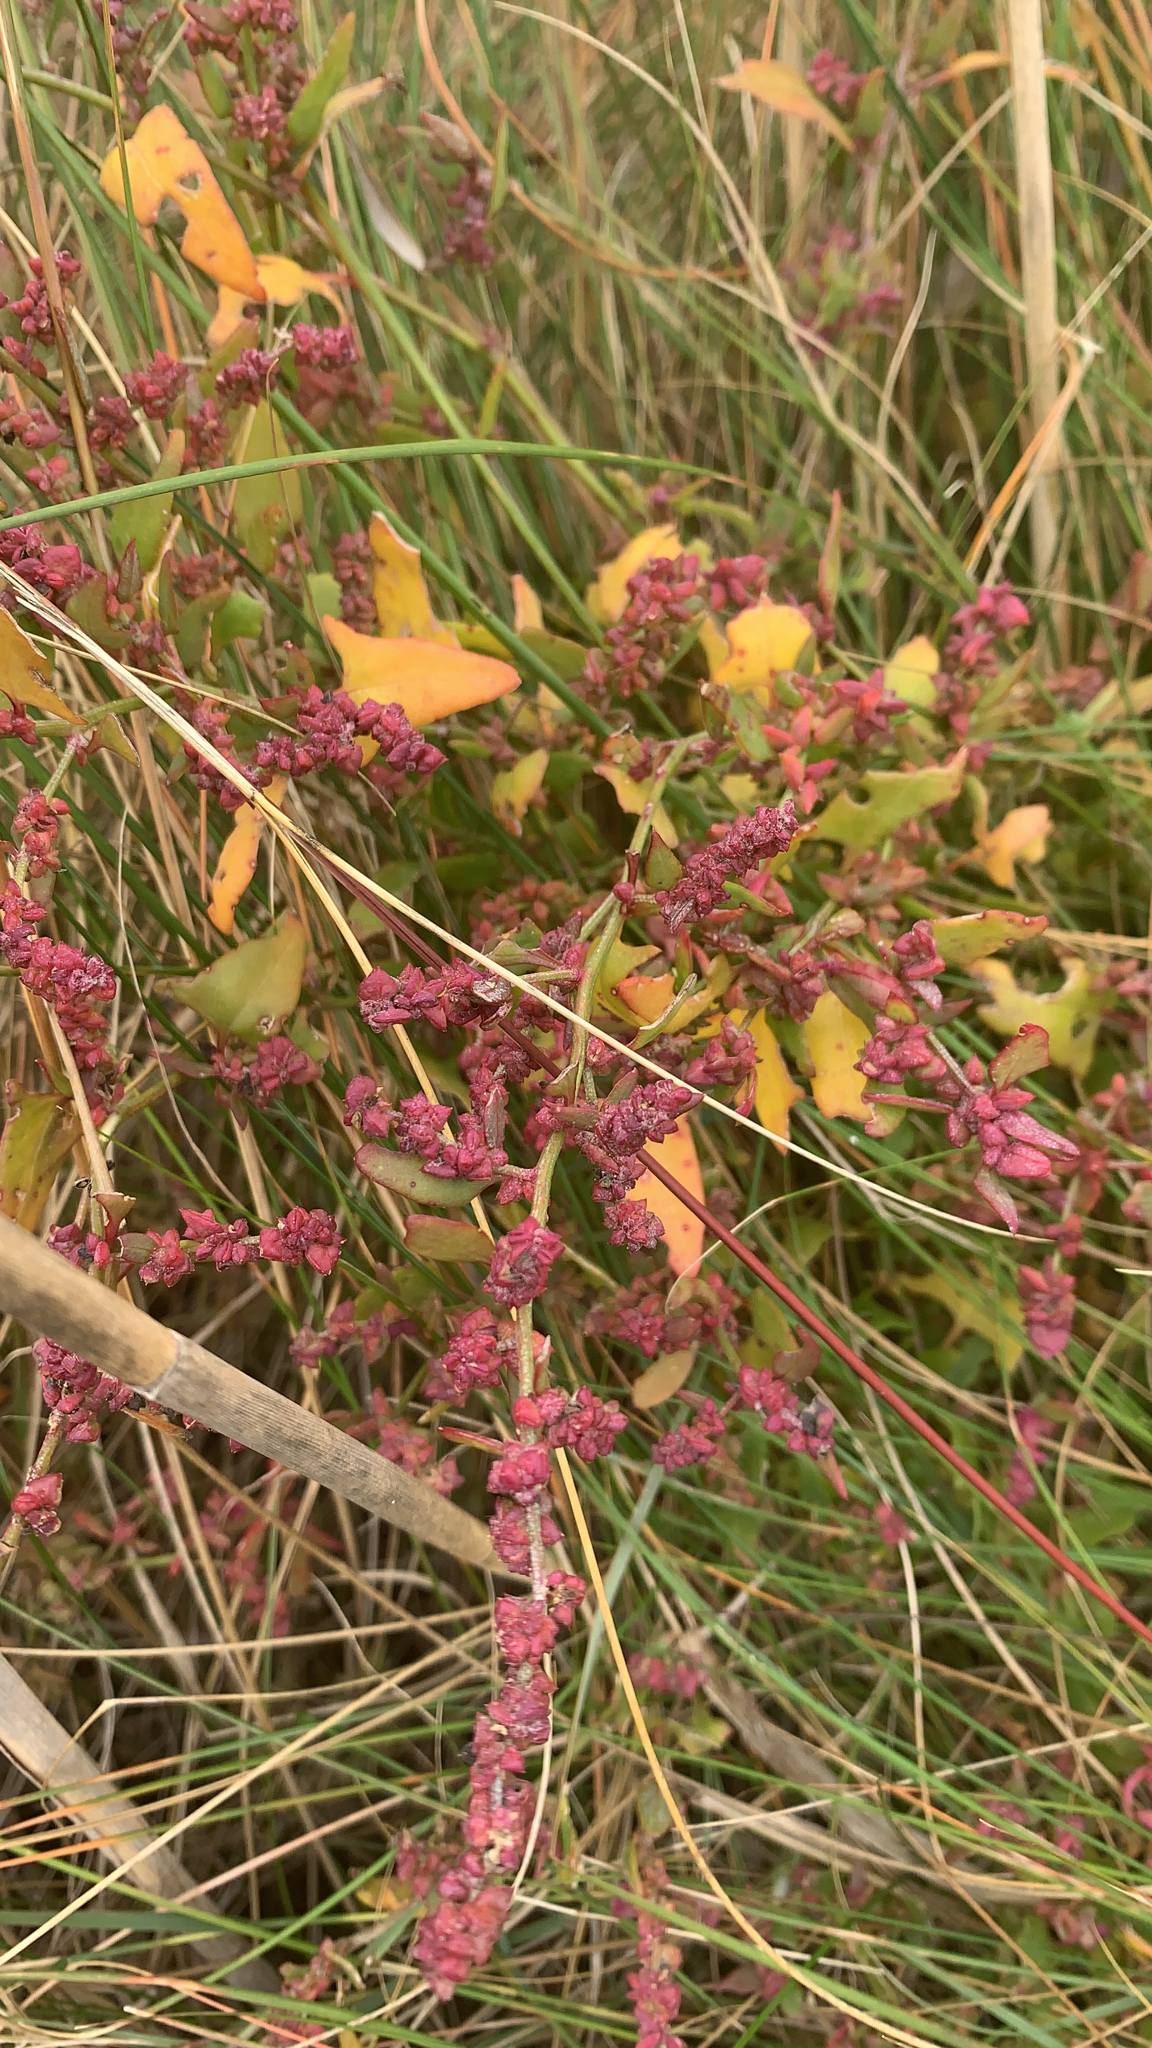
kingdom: Plantae
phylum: Tracheophyta
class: Magnoliopsida
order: Caryophyllales
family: Amaranthaceae
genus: Atriplex
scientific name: Atriplex prostrata
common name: Spear-leaved orache
